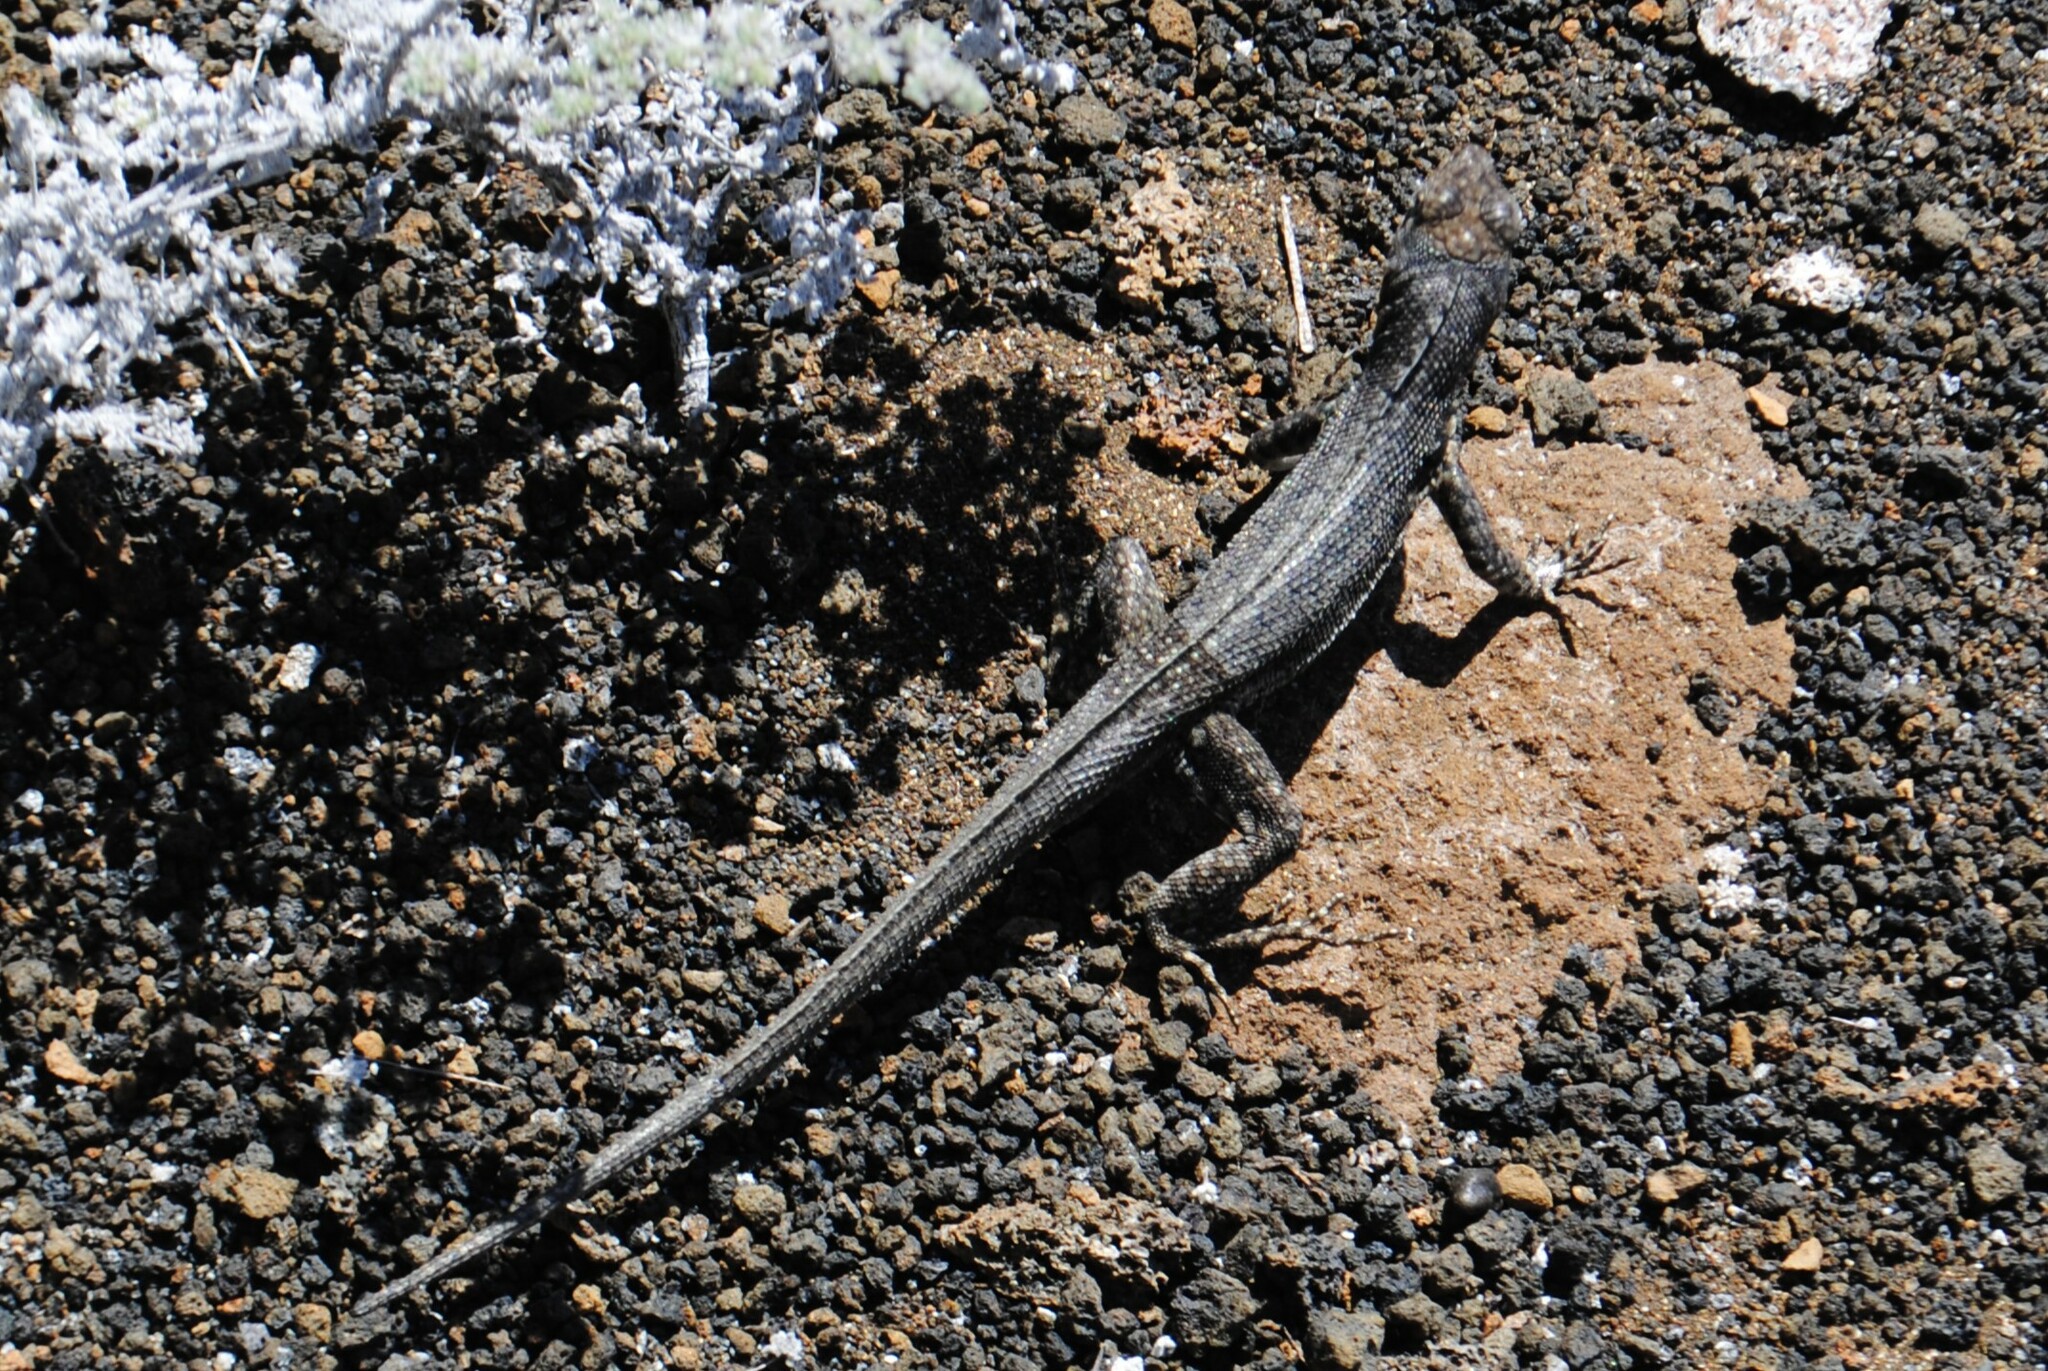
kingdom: Animalia
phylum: Chordata
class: Squamata
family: Tropiduridae
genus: Microlophus
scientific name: Microlophus jacobii
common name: Santiago lava lizard
